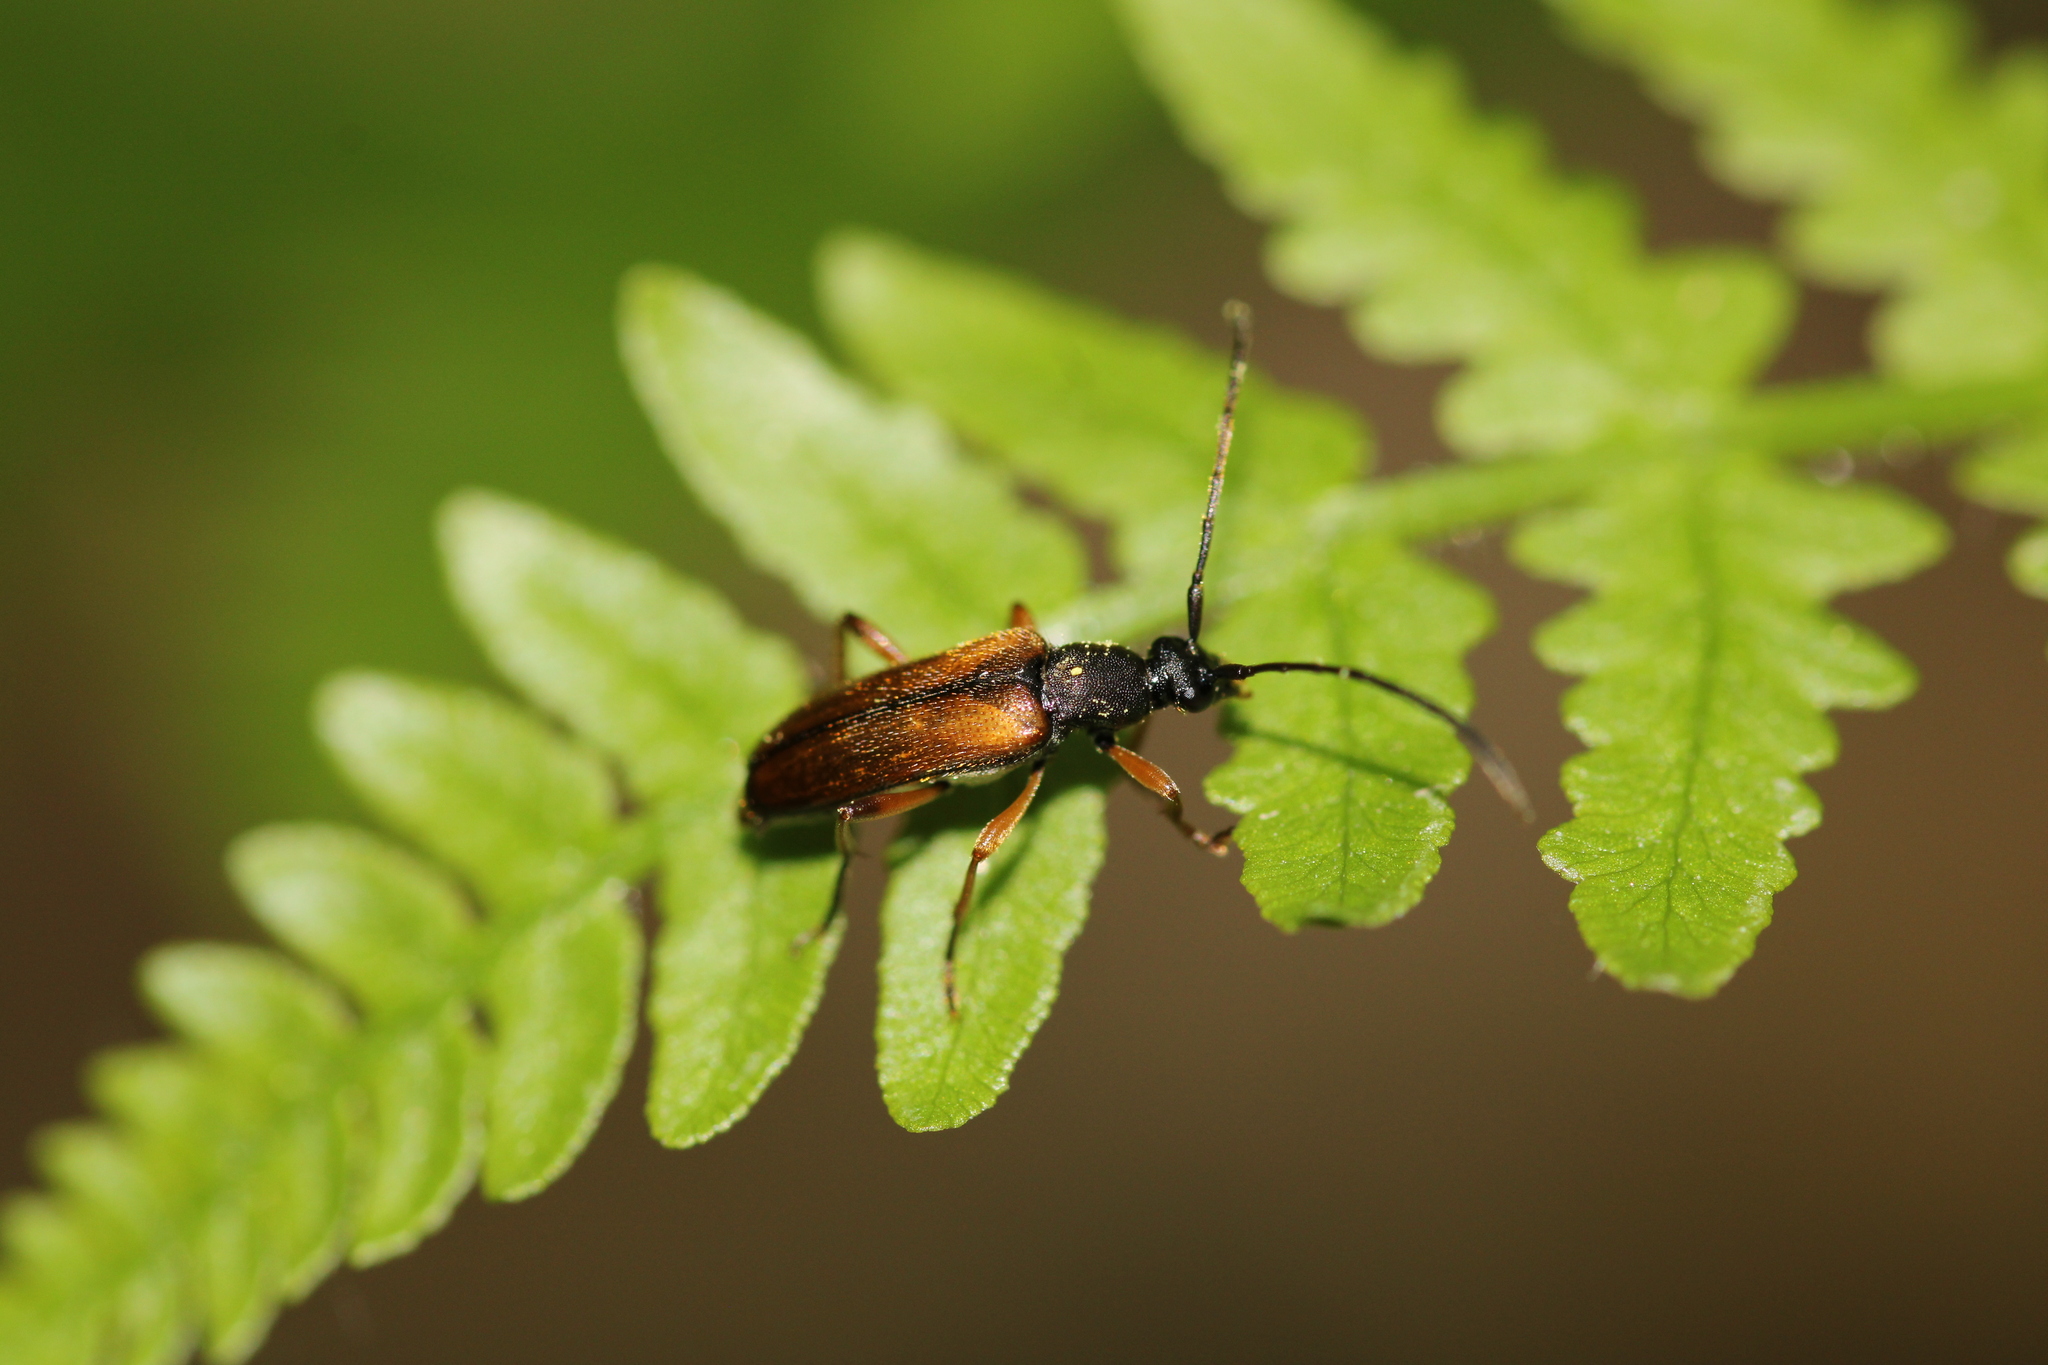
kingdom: Animalia
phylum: Arthropoda
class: Insecta
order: Coleoptera
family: Cerambycidae
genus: Alosterna
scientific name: Alosterna tabacicolor
